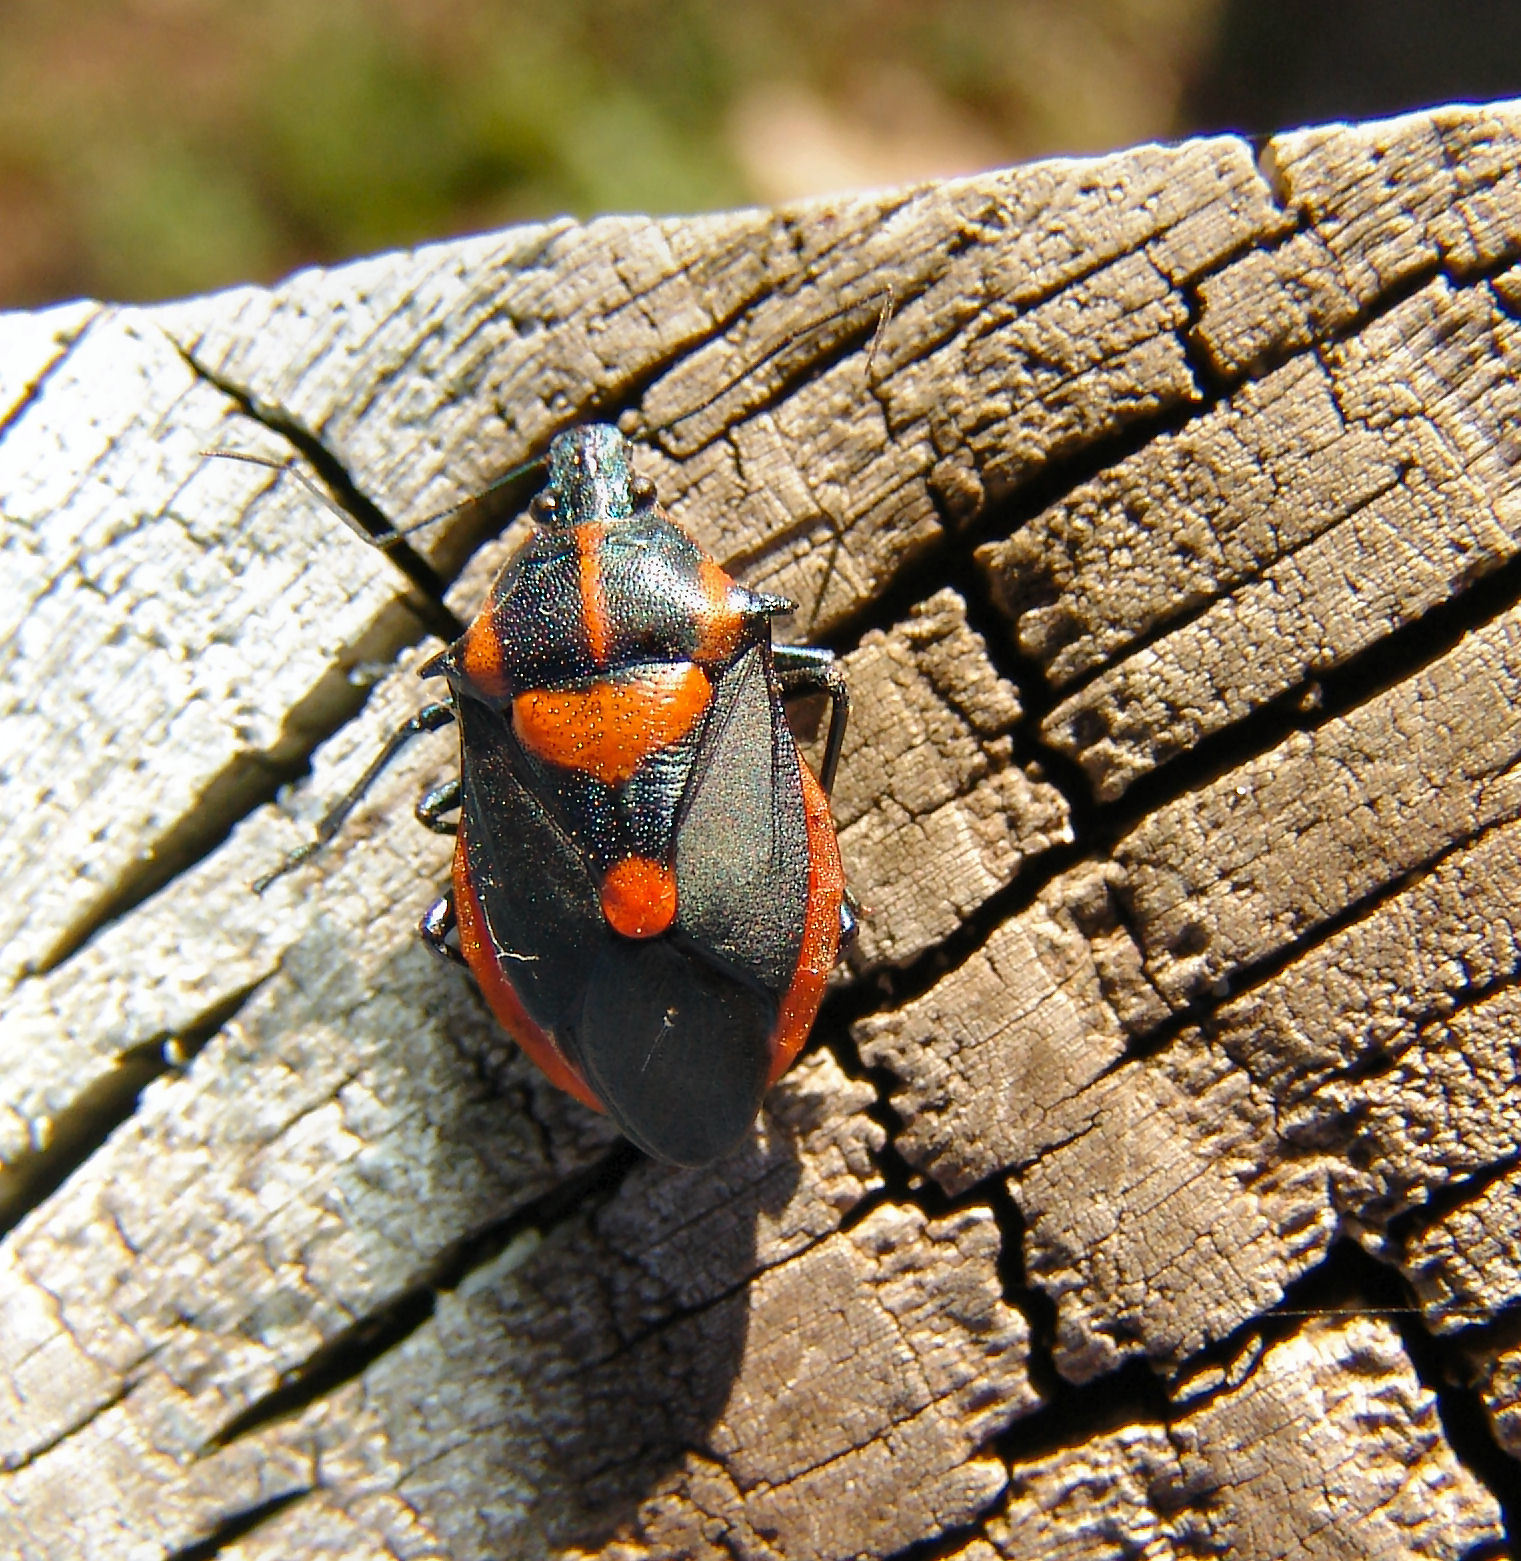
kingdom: Animalia
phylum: Arthropoda
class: Insecta
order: Hemiptera
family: Pentatomidae
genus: Euthyrhynchus
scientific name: Euthyrhynchus floridanus
